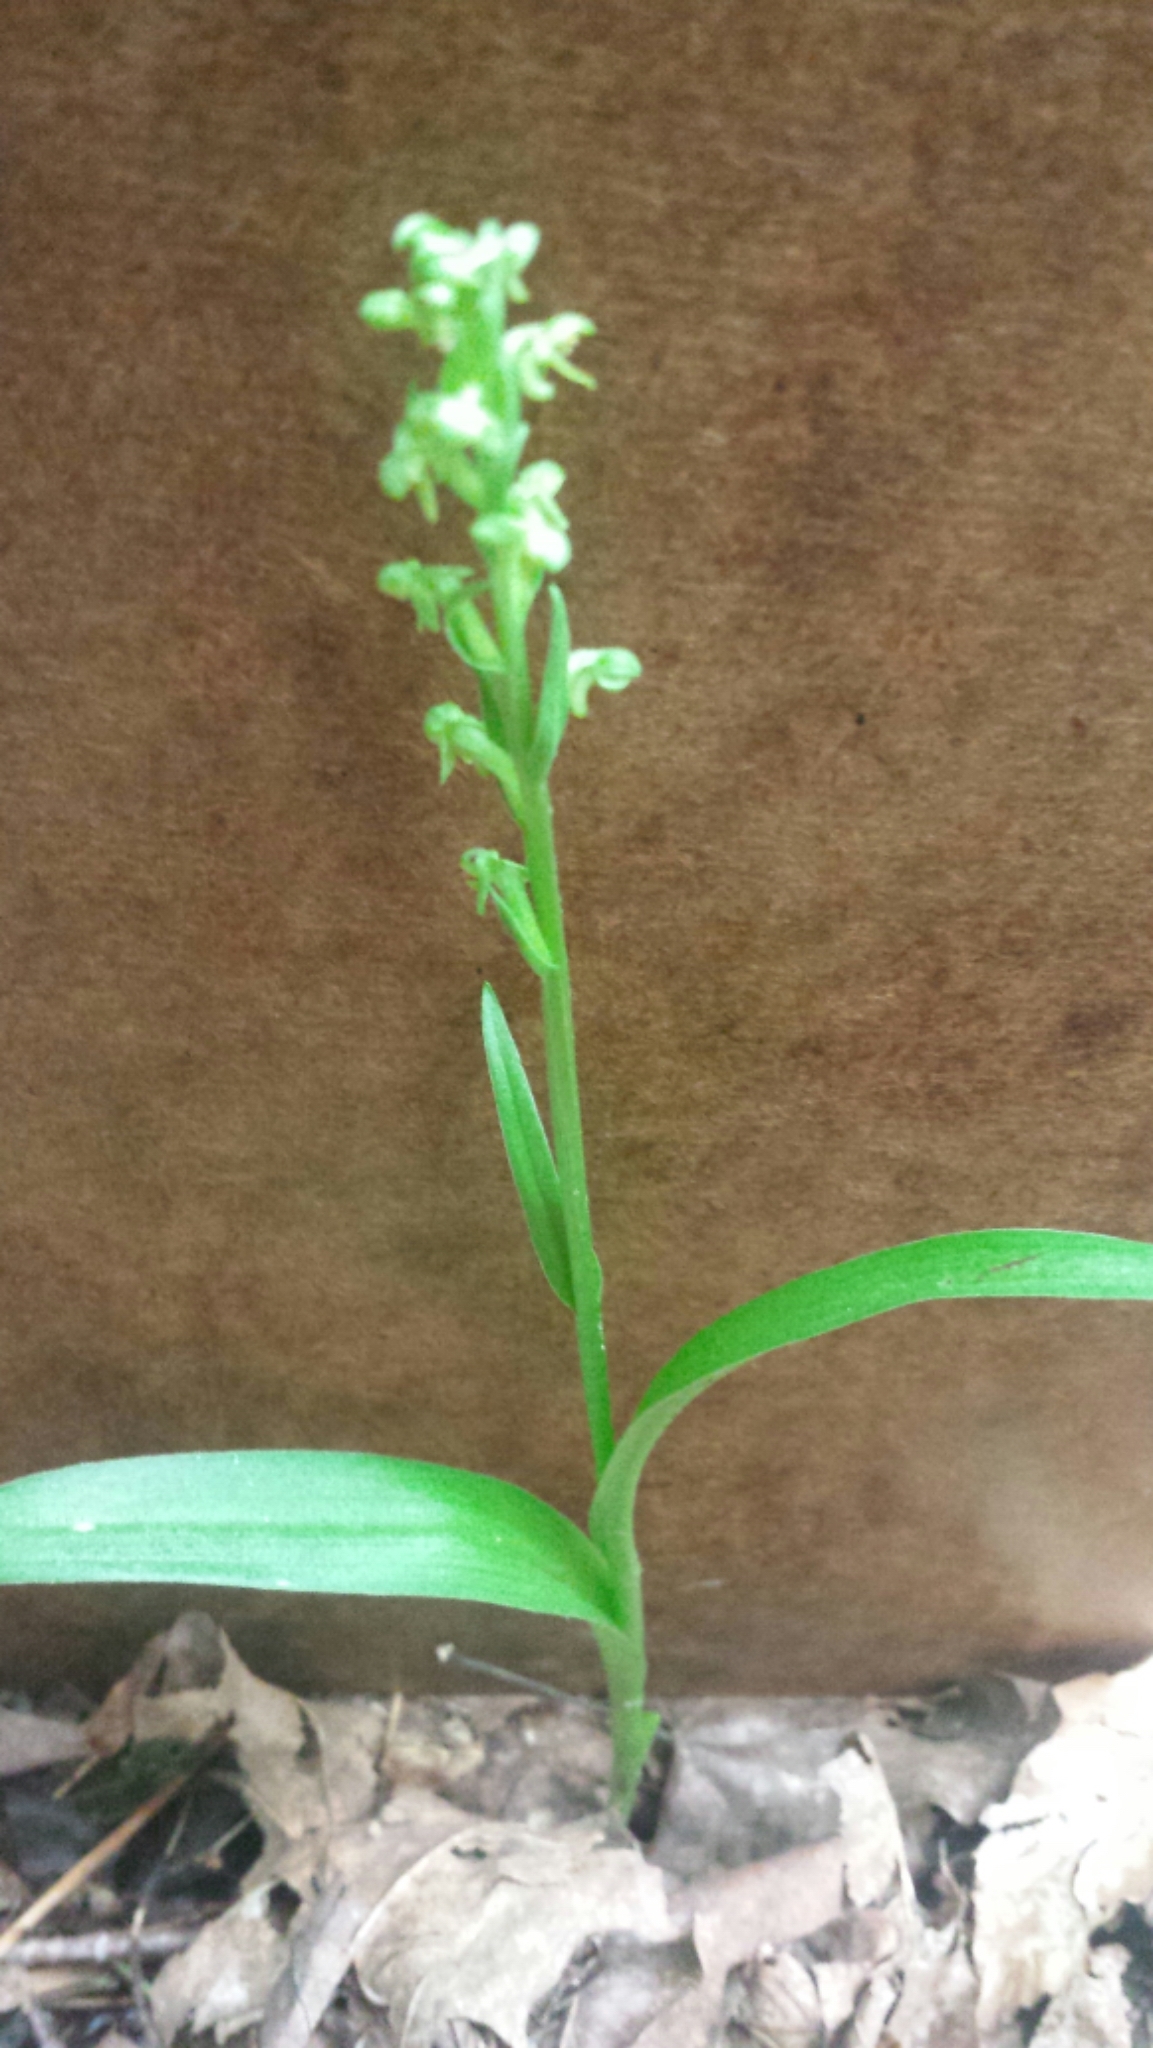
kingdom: Plantae
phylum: Tracheophyta
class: Liliopsida
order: Asparagales
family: Orchidaceae
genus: Platanthera
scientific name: Platanthera aquilonis
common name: Northern green orchid
